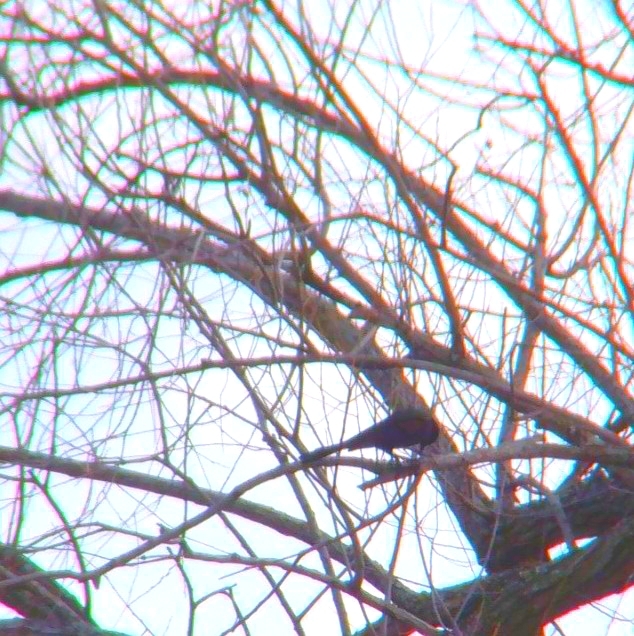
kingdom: Animalia
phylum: Chordata
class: Aves
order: Passeriformes
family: Icteridae
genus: Quiscalus
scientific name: Quiscalus quiscula
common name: Common grackle
